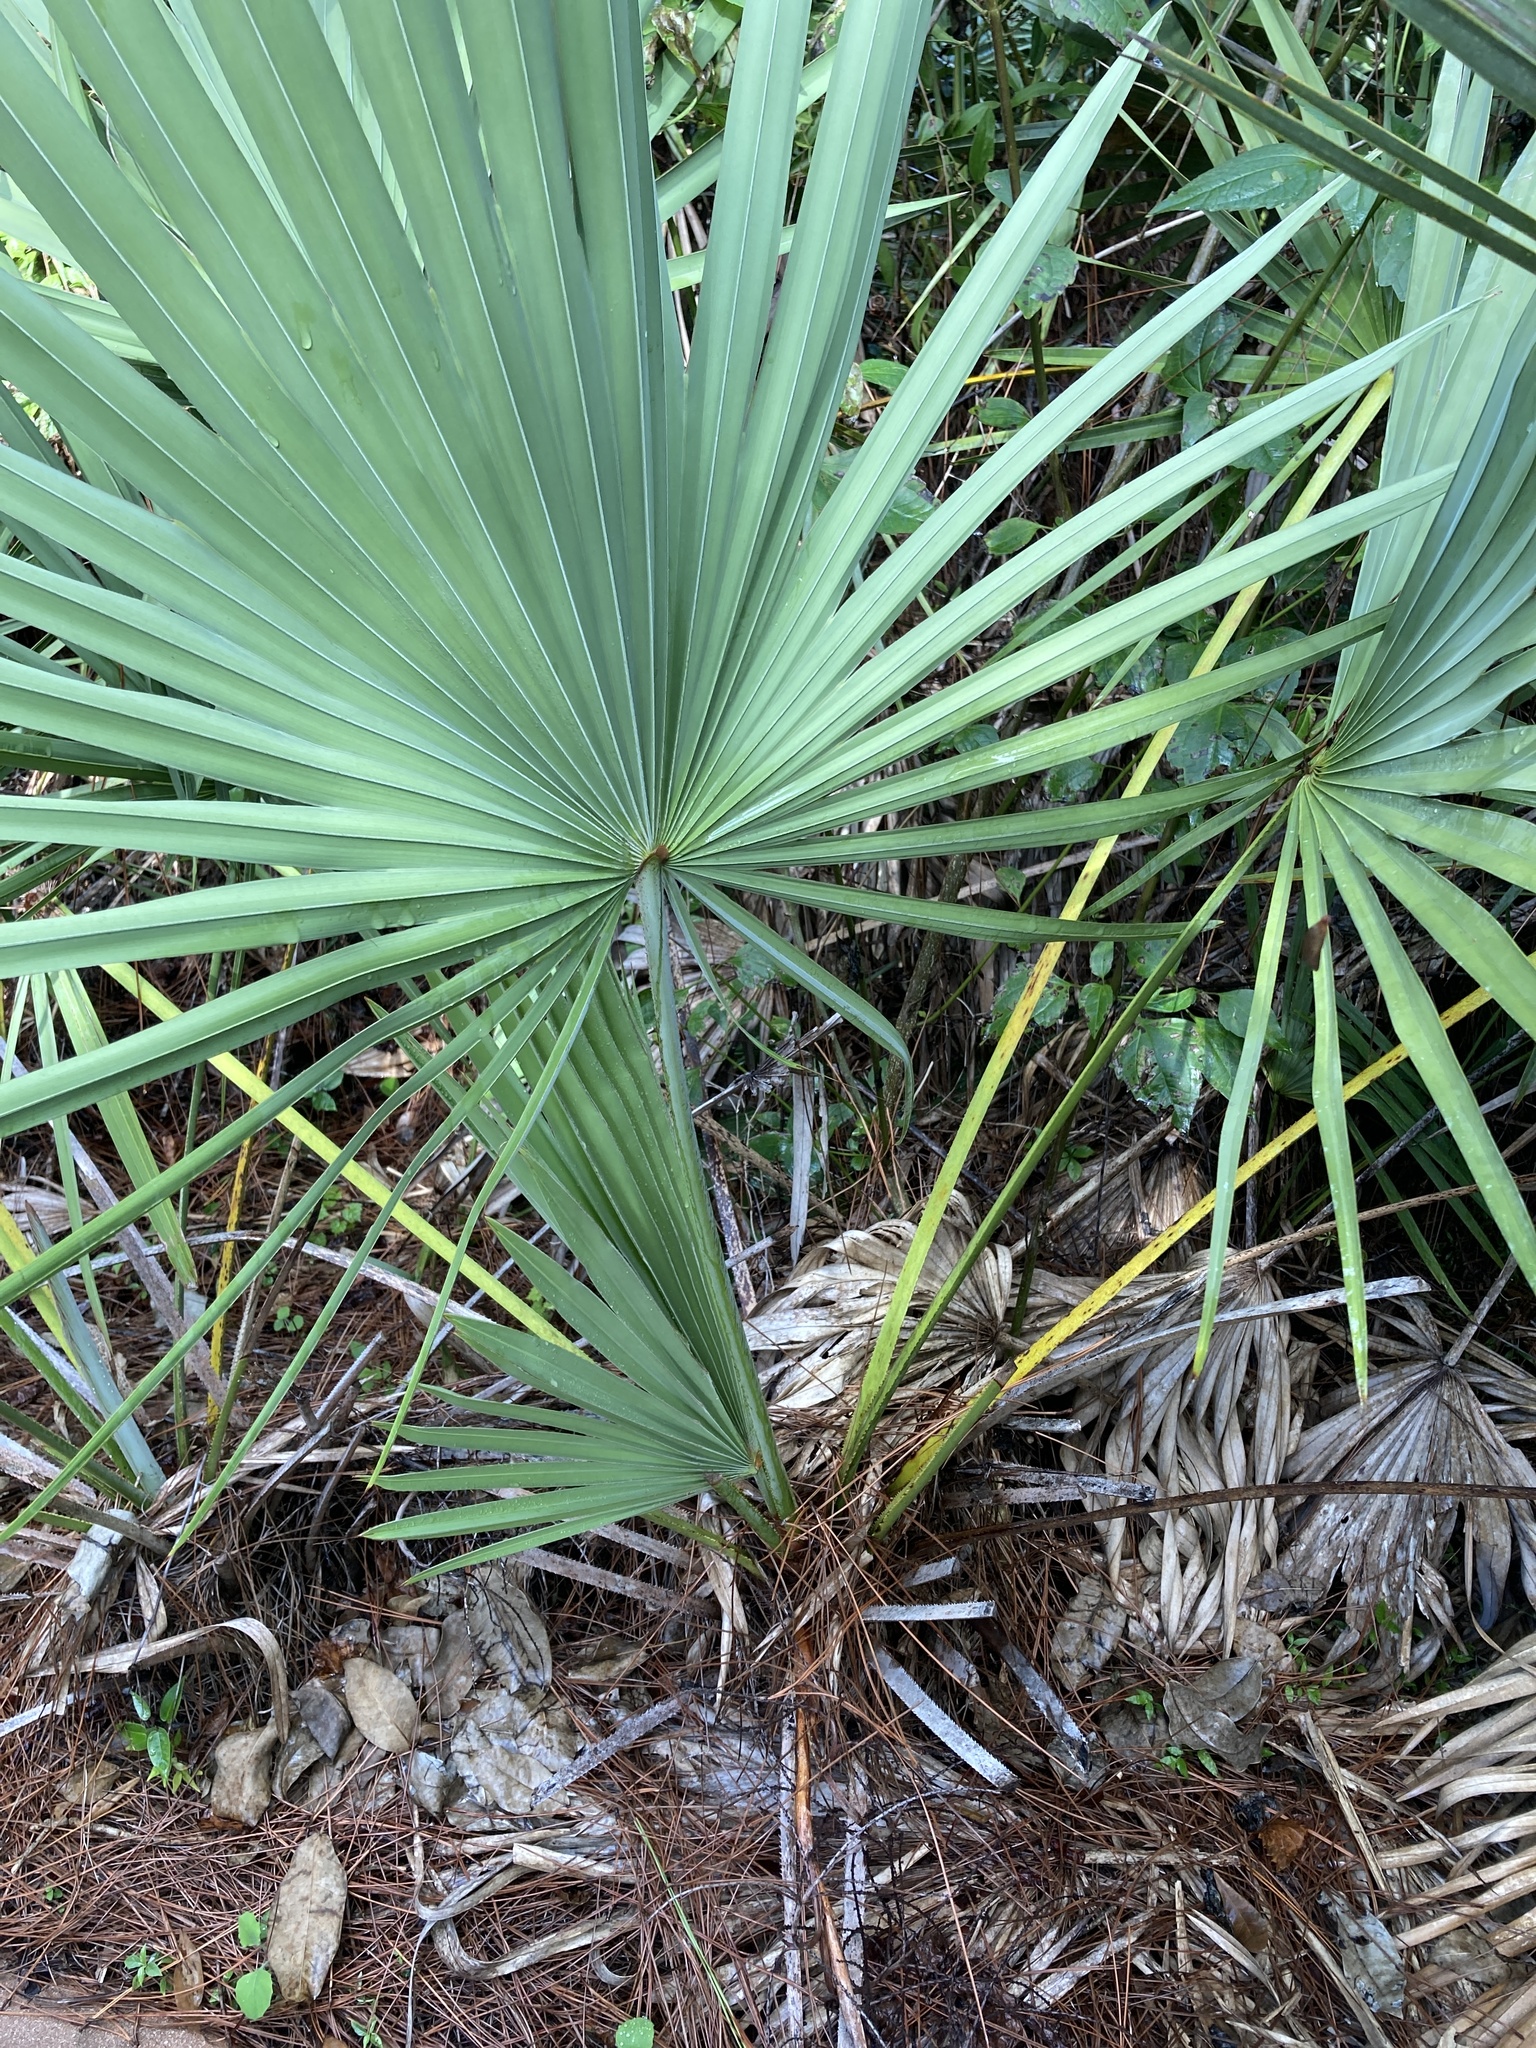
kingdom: Plantae
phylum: Tracheophyta
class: Liliopsida
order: Arecales
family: Arecaceae
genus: Serenoa
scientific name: Serenoa repens
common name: Saw-palmetto
